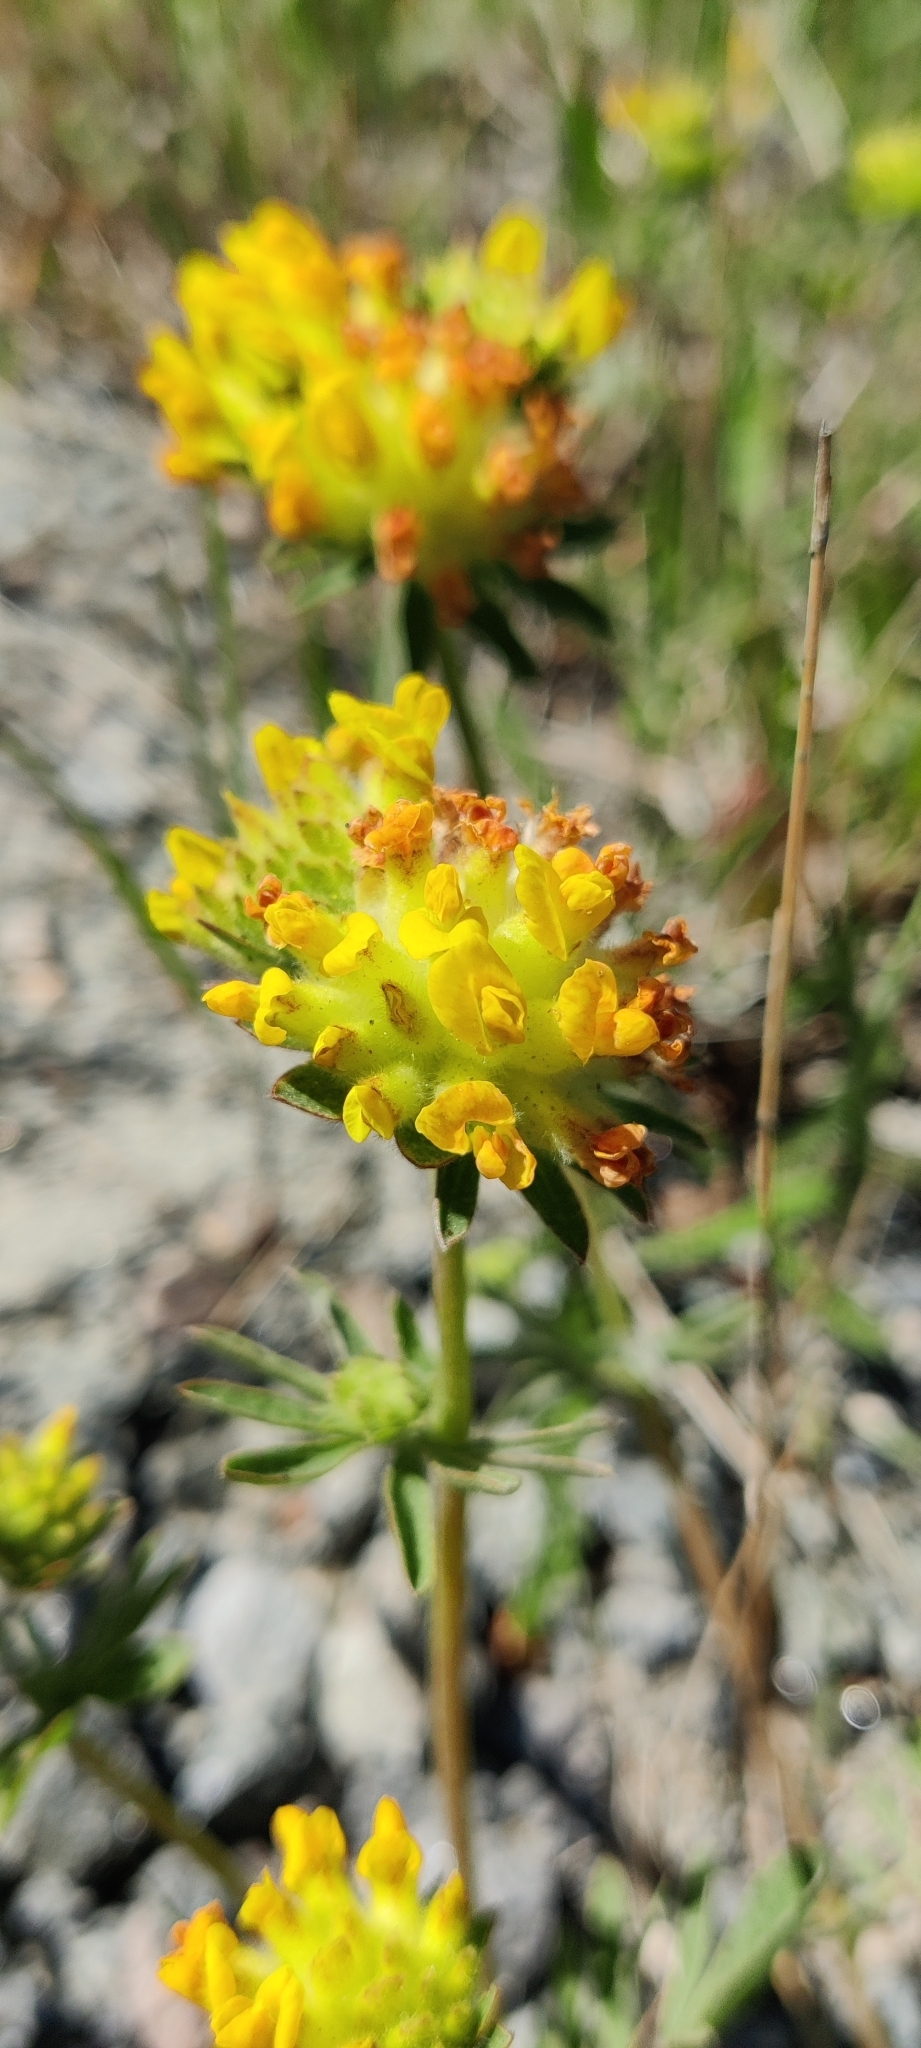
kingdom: Plantae
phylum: Tracheophyta
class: Magnoliopsida
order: Fabales
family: Fabaceae
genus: Anthyllis
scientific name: Anthyllis vulneraria
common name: Kidney vetch
